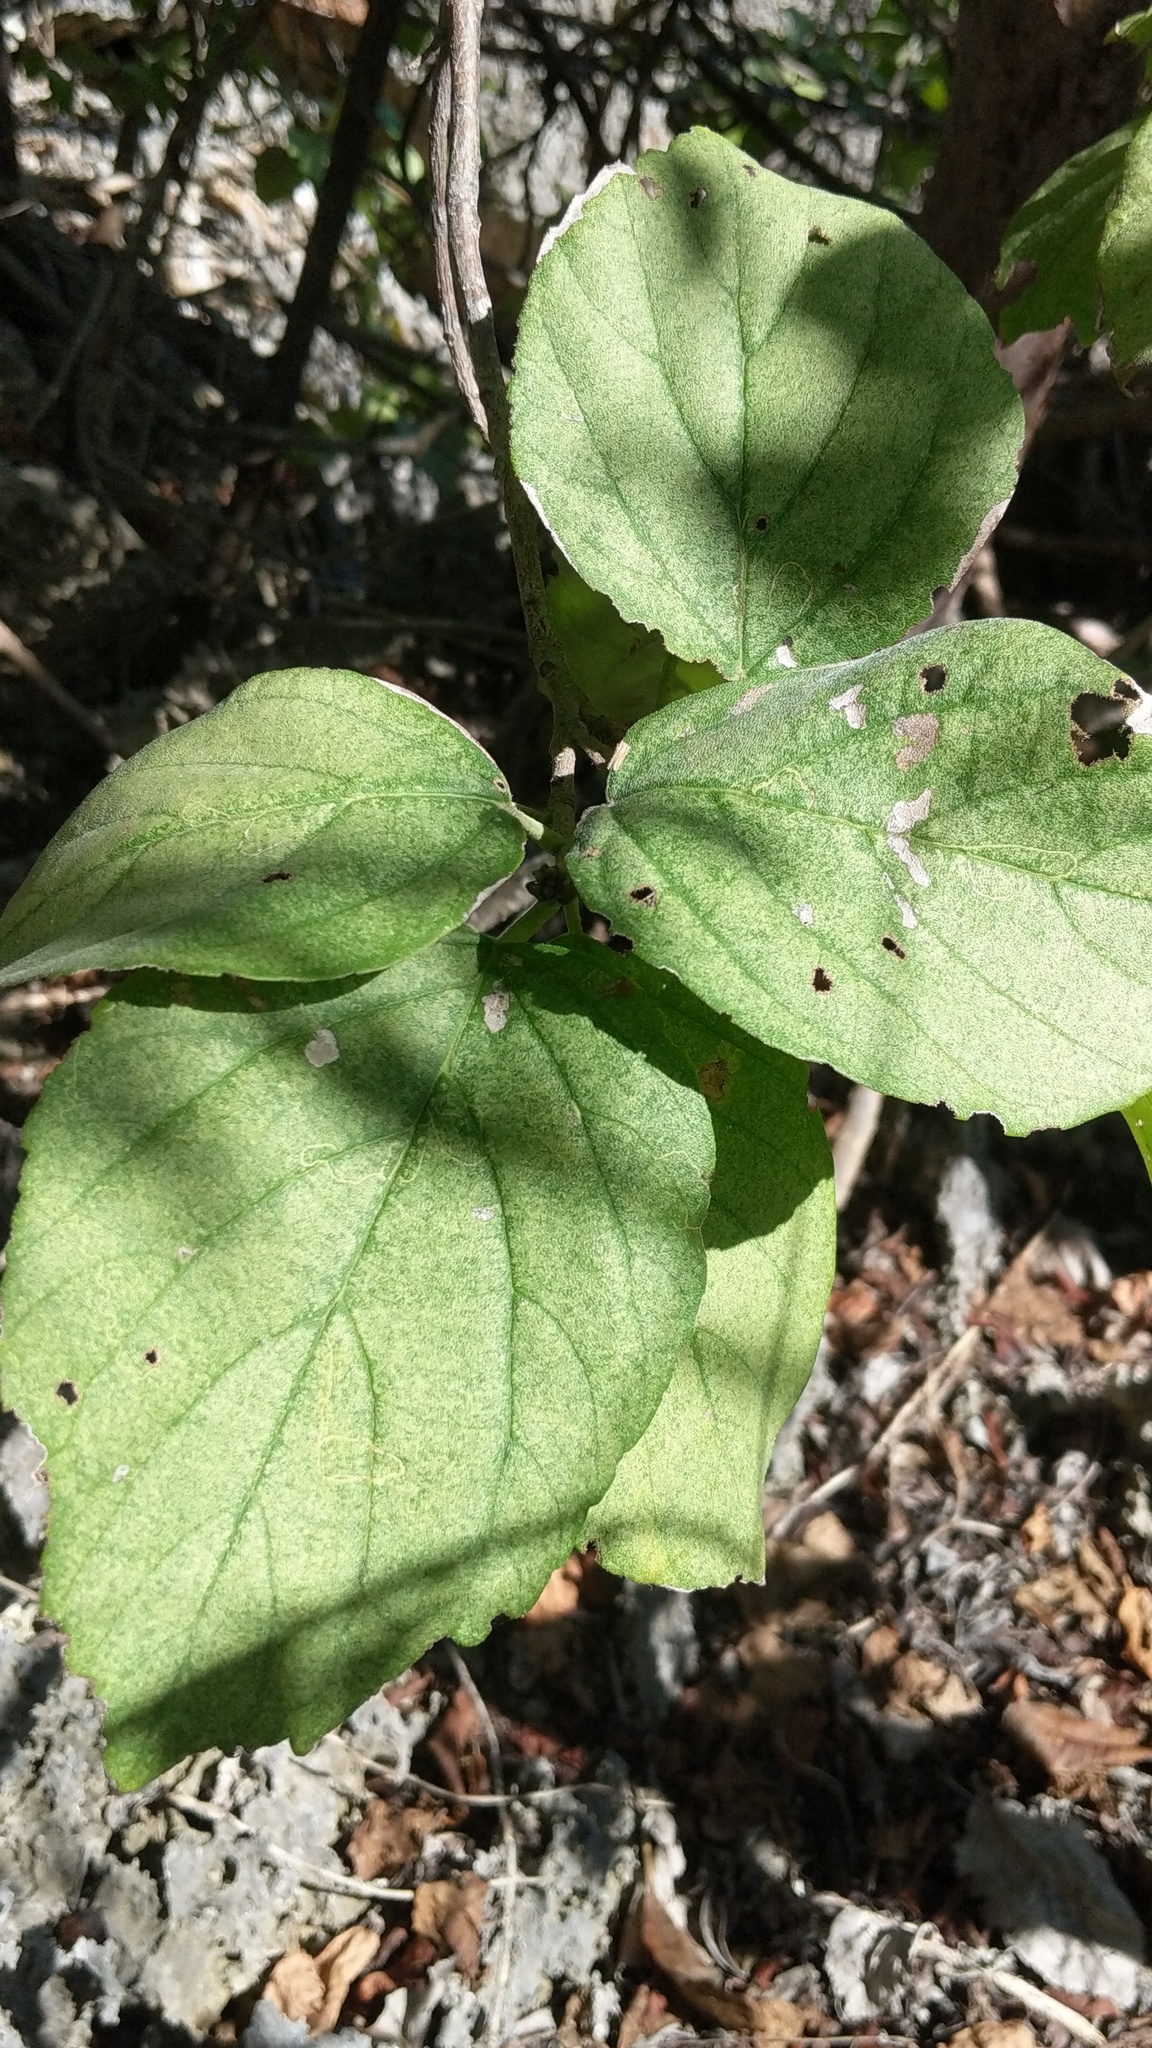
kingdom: Plantae
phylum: Tracheophyta
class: Magnoliopsida
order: Boraginales
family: Cordiaceae
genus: Cordia
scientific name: Cordia sebestena
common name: Largeleaf geigertree
